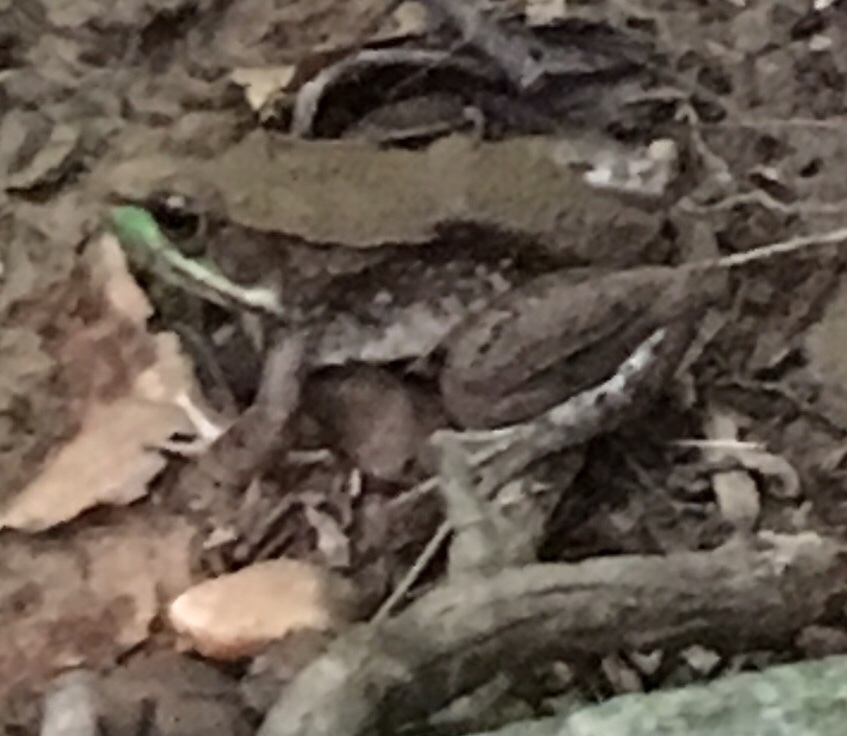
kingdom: Animalia
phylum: Chordata
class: Amphibia
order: Anura
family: Ranidae
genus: Lithobates
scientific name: Lithobates clamitans
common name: Green frog
